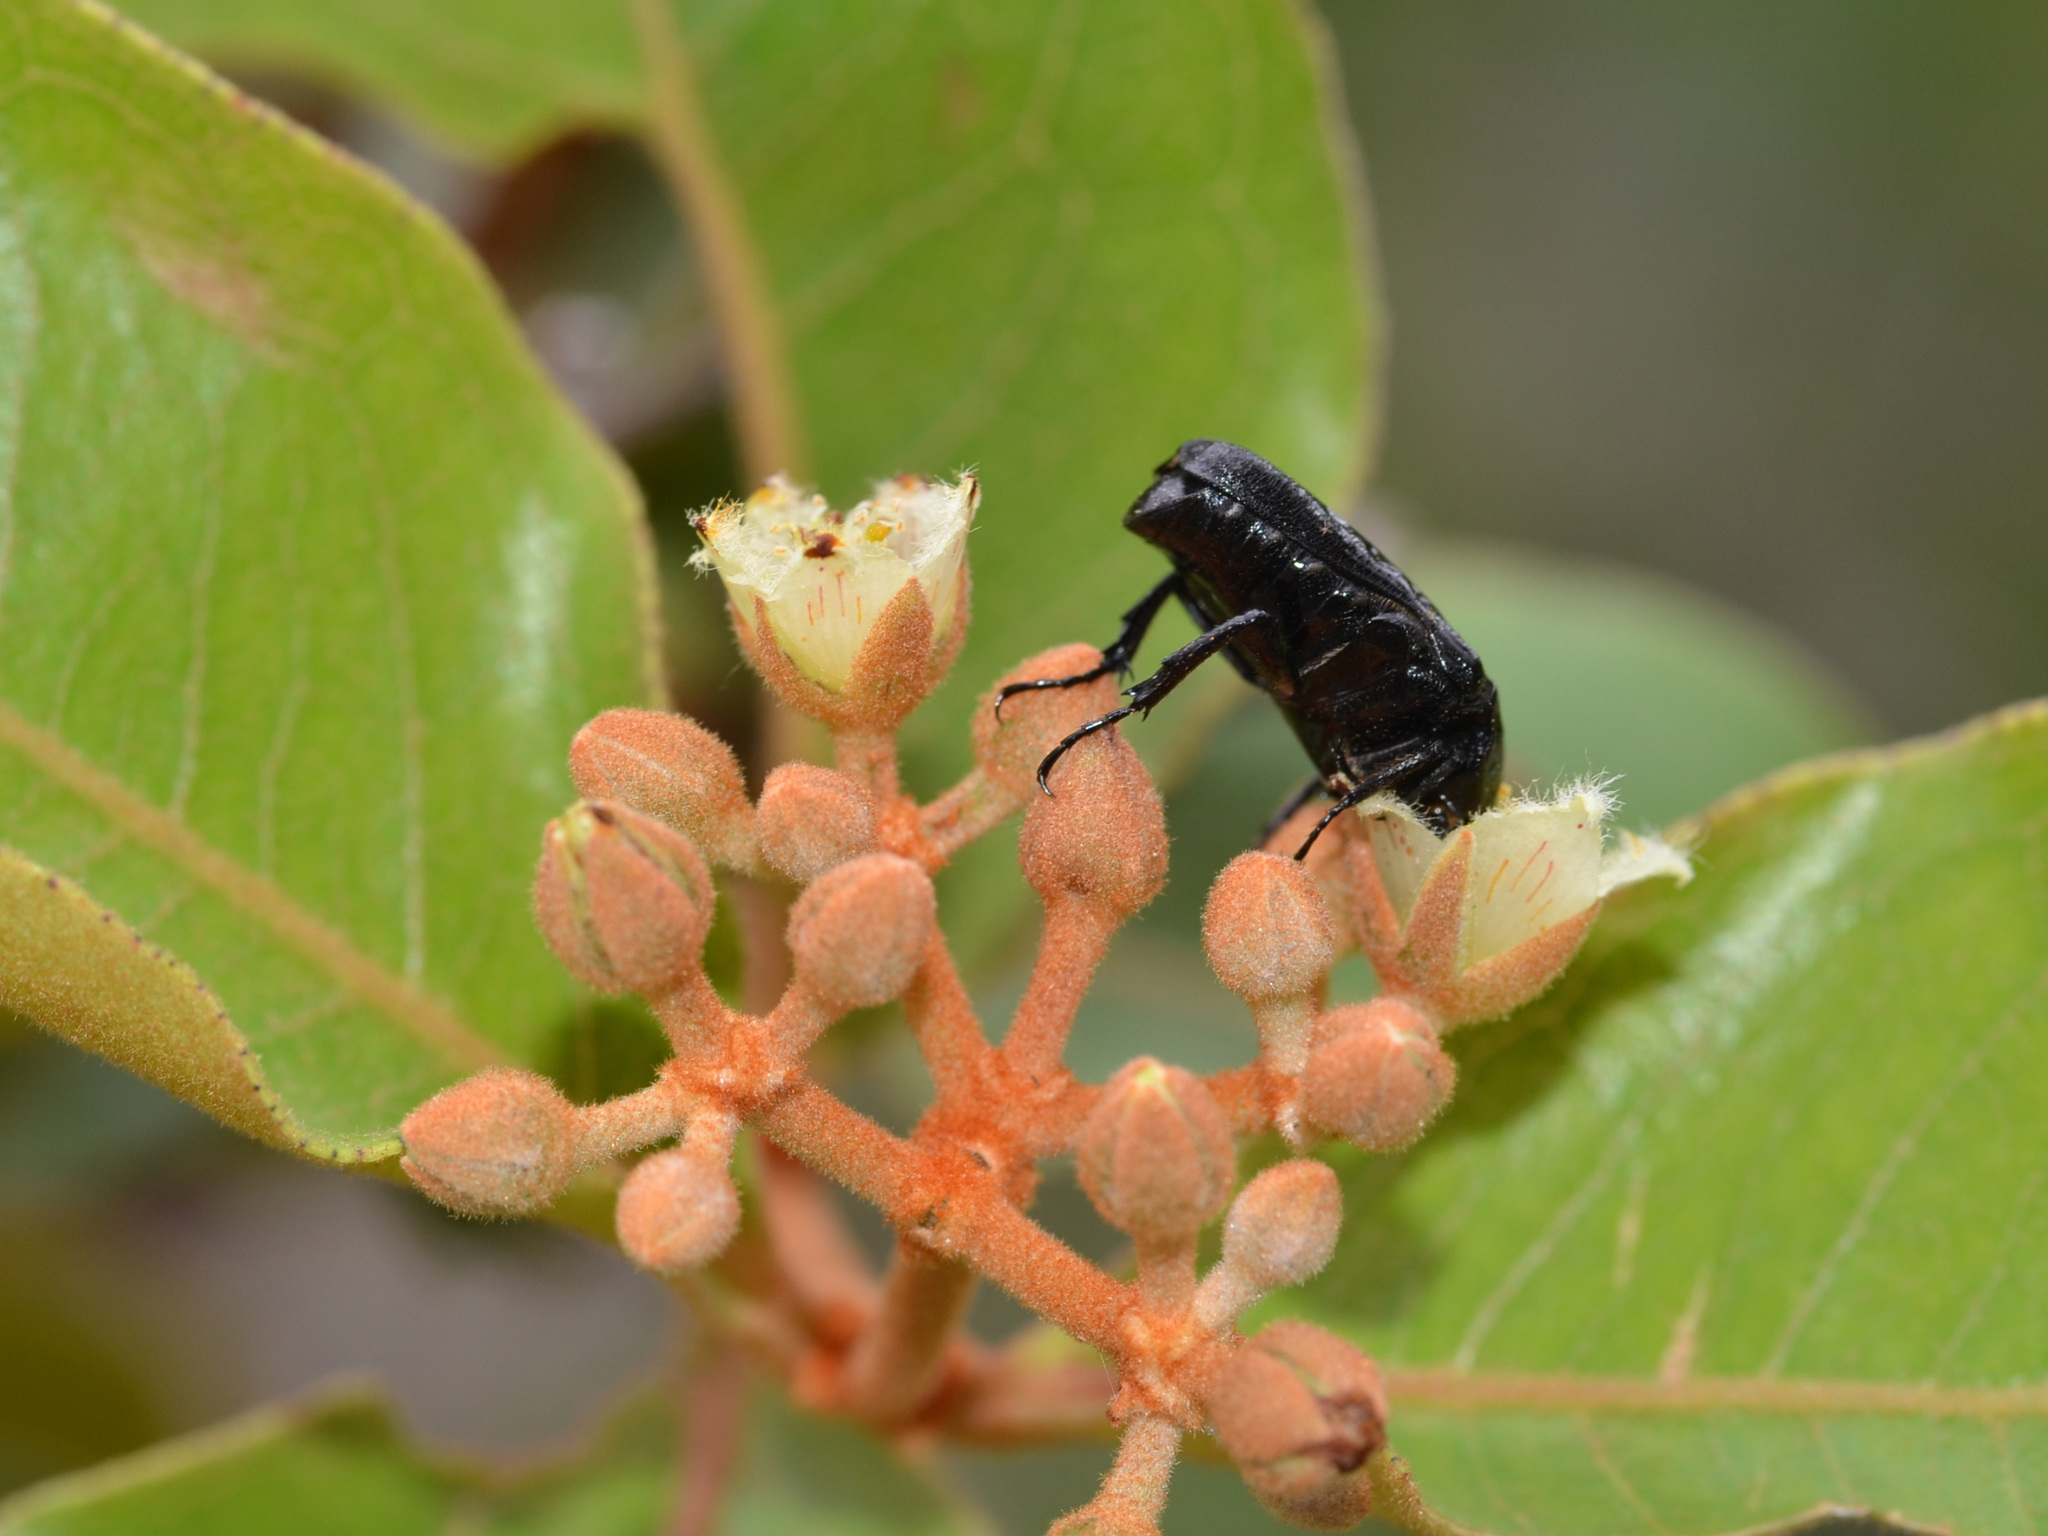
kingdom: Animalia
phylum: Arthropoda
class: Insecta
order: Coleoptera
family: Scarabaeidae
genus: Trymodera
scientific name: Trymodera aterrima
